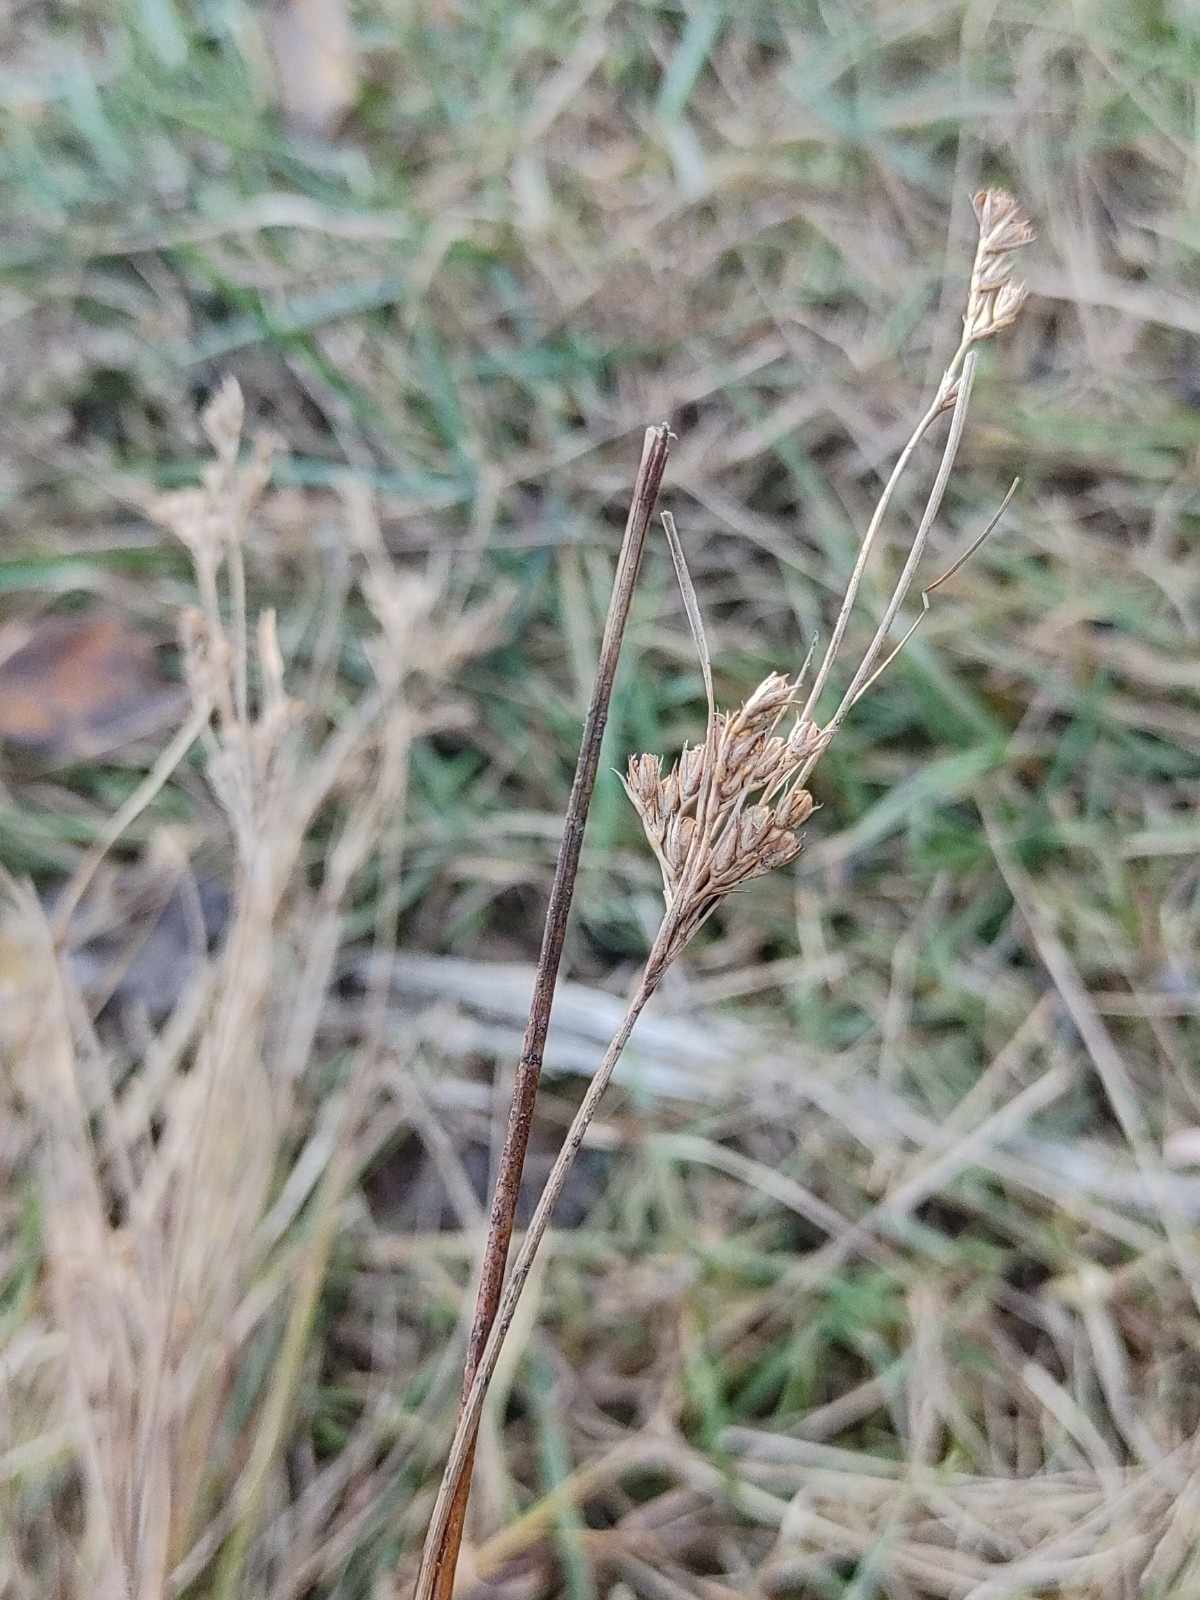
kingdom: Plantae
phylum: Tracheophyta
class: Liliopsida
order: Poales
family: Juncaceae
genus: Juncus
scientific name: Juncus tenuis
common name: Slender rush
